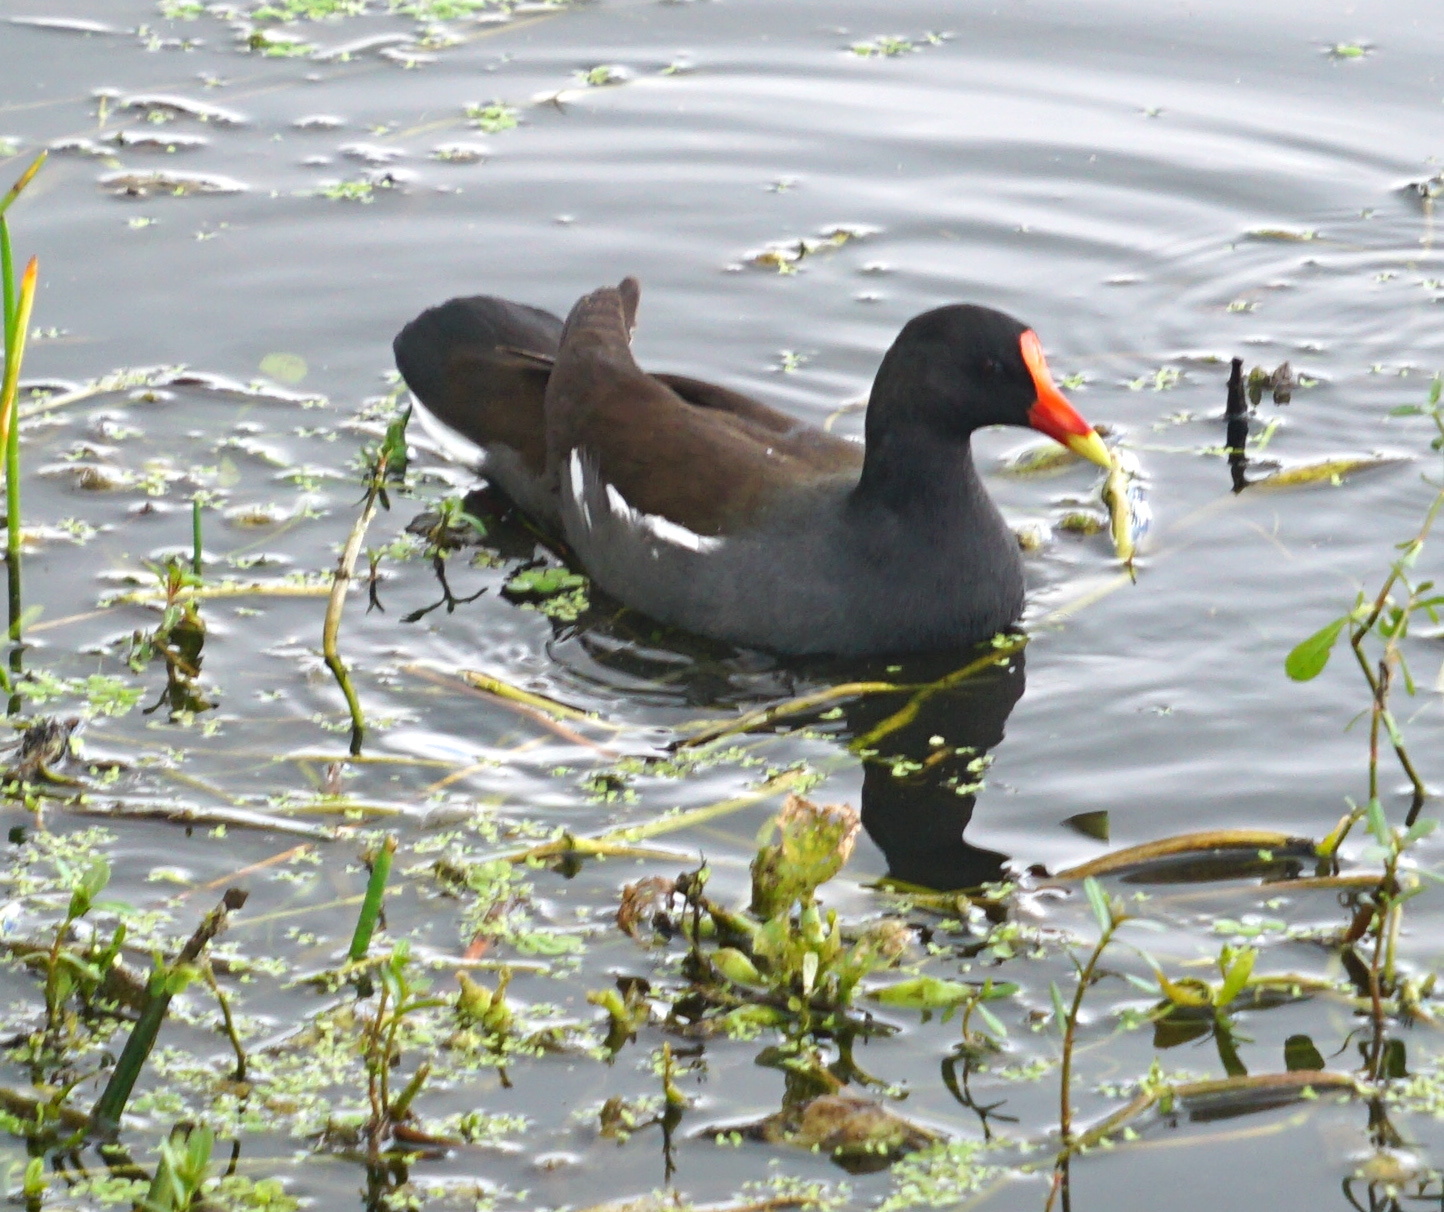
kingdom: Animalia
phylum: Chordata
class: Aves
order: Gruiformes
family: Rallidae
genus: Gallinula
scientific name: Gallinula chloropus
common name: Common moorhen
